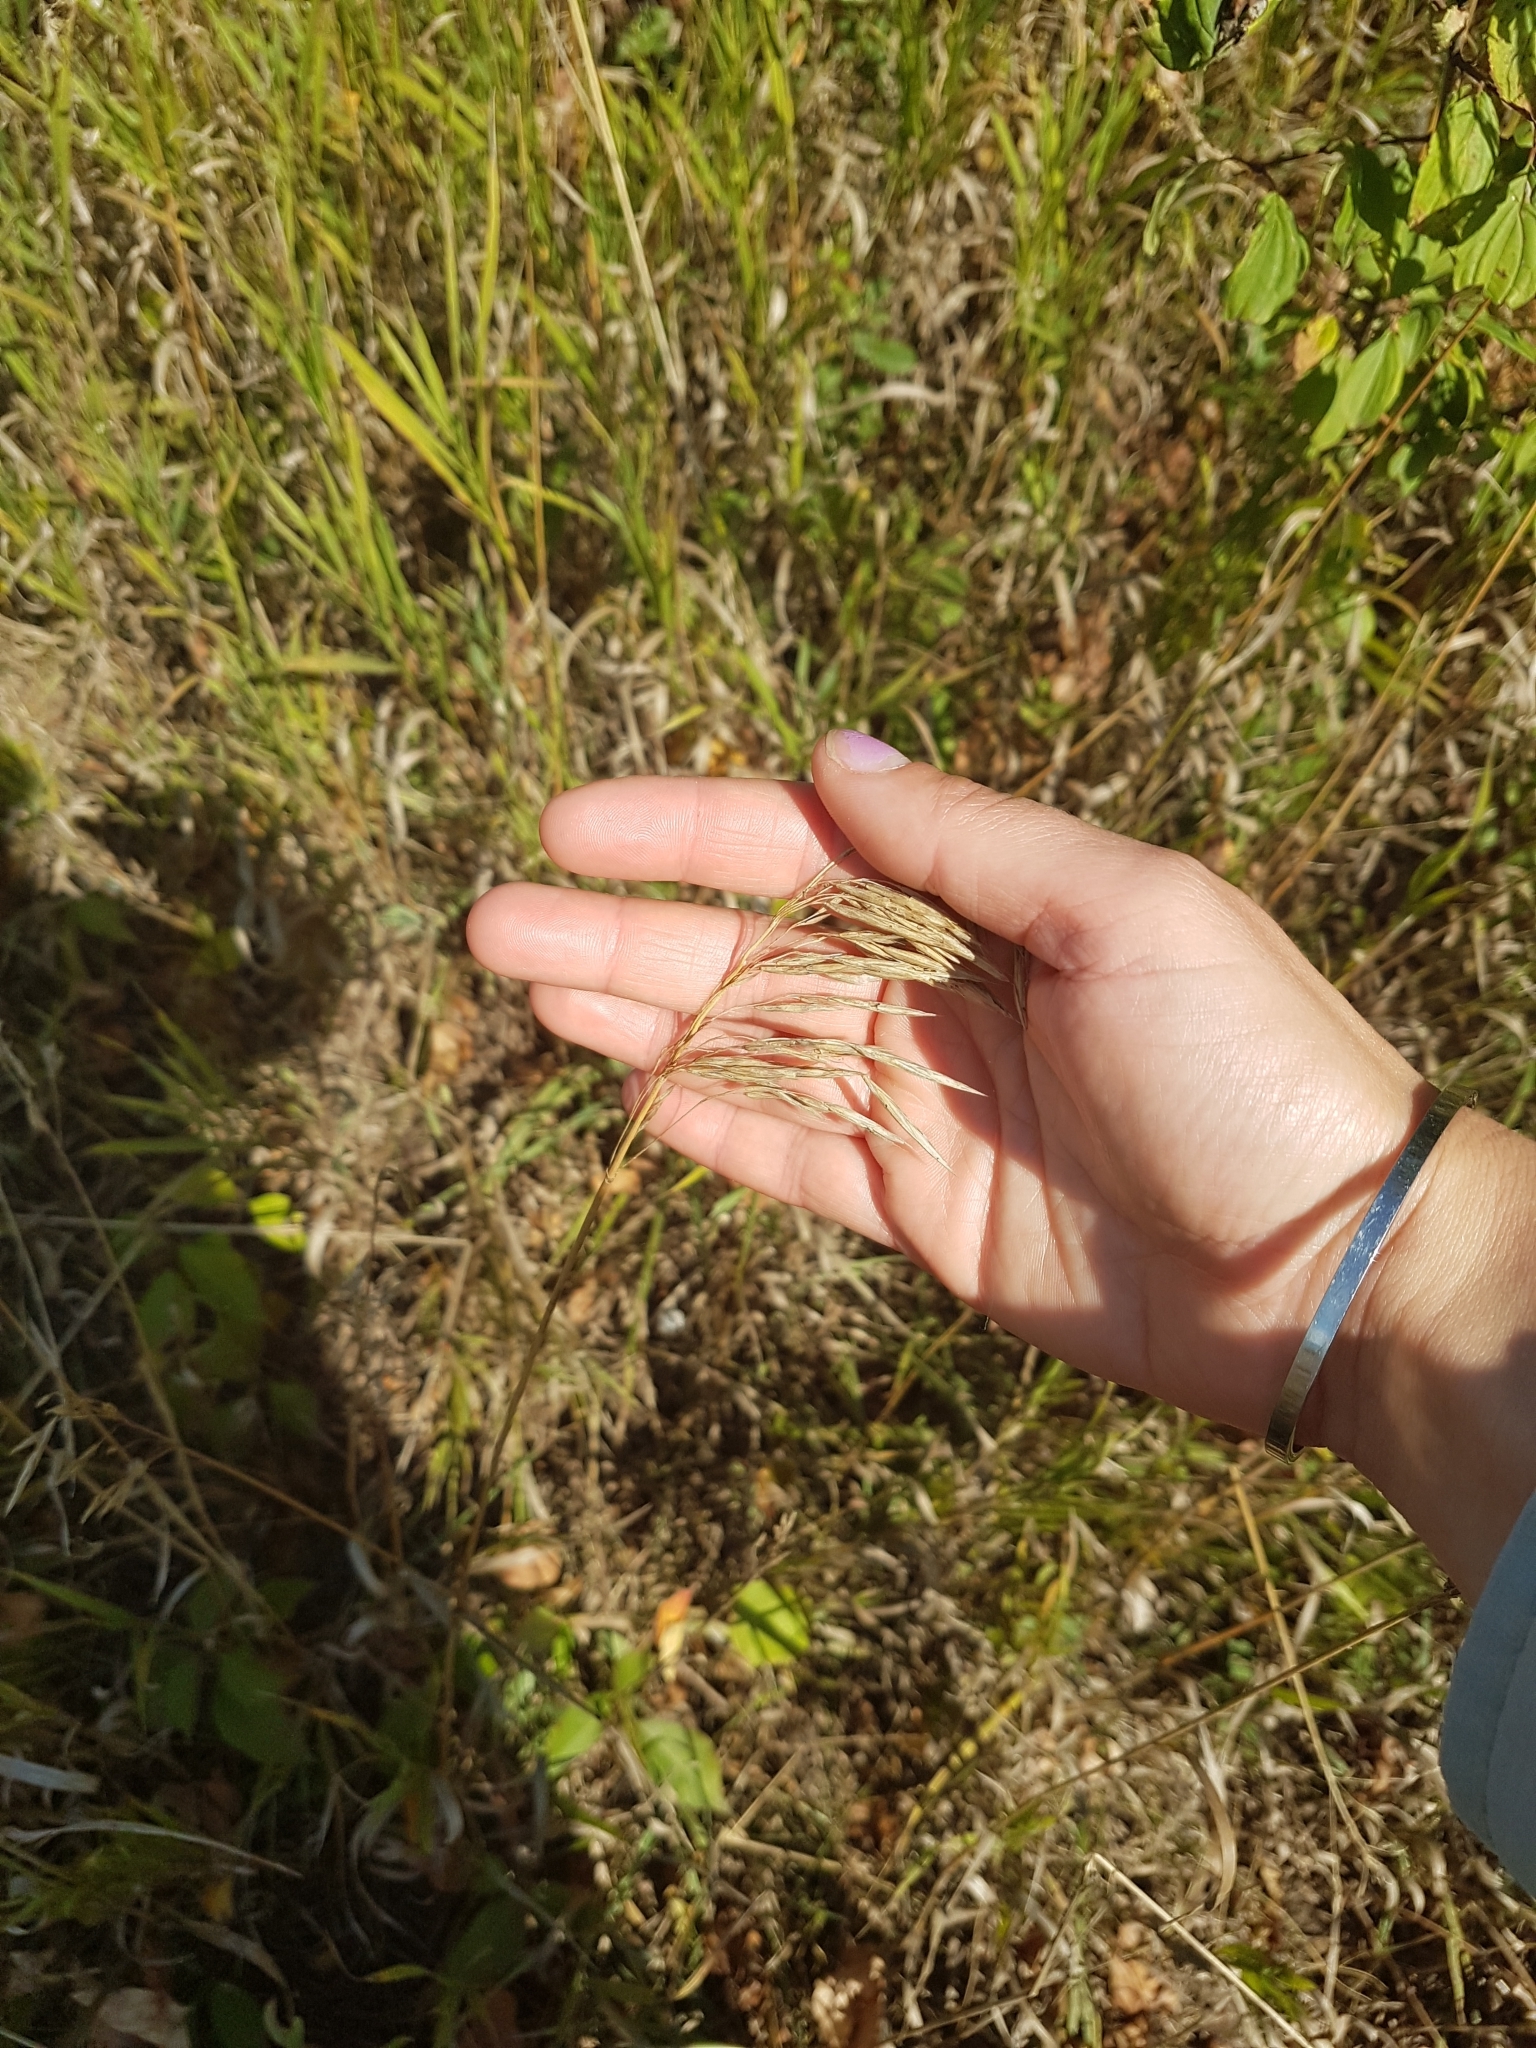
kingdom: Plantae
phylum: Tracheophyta
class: Liliopsida
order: Poales
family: Poaceae
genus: Bromus
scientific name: Bromus inermis
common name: Smooth brome
